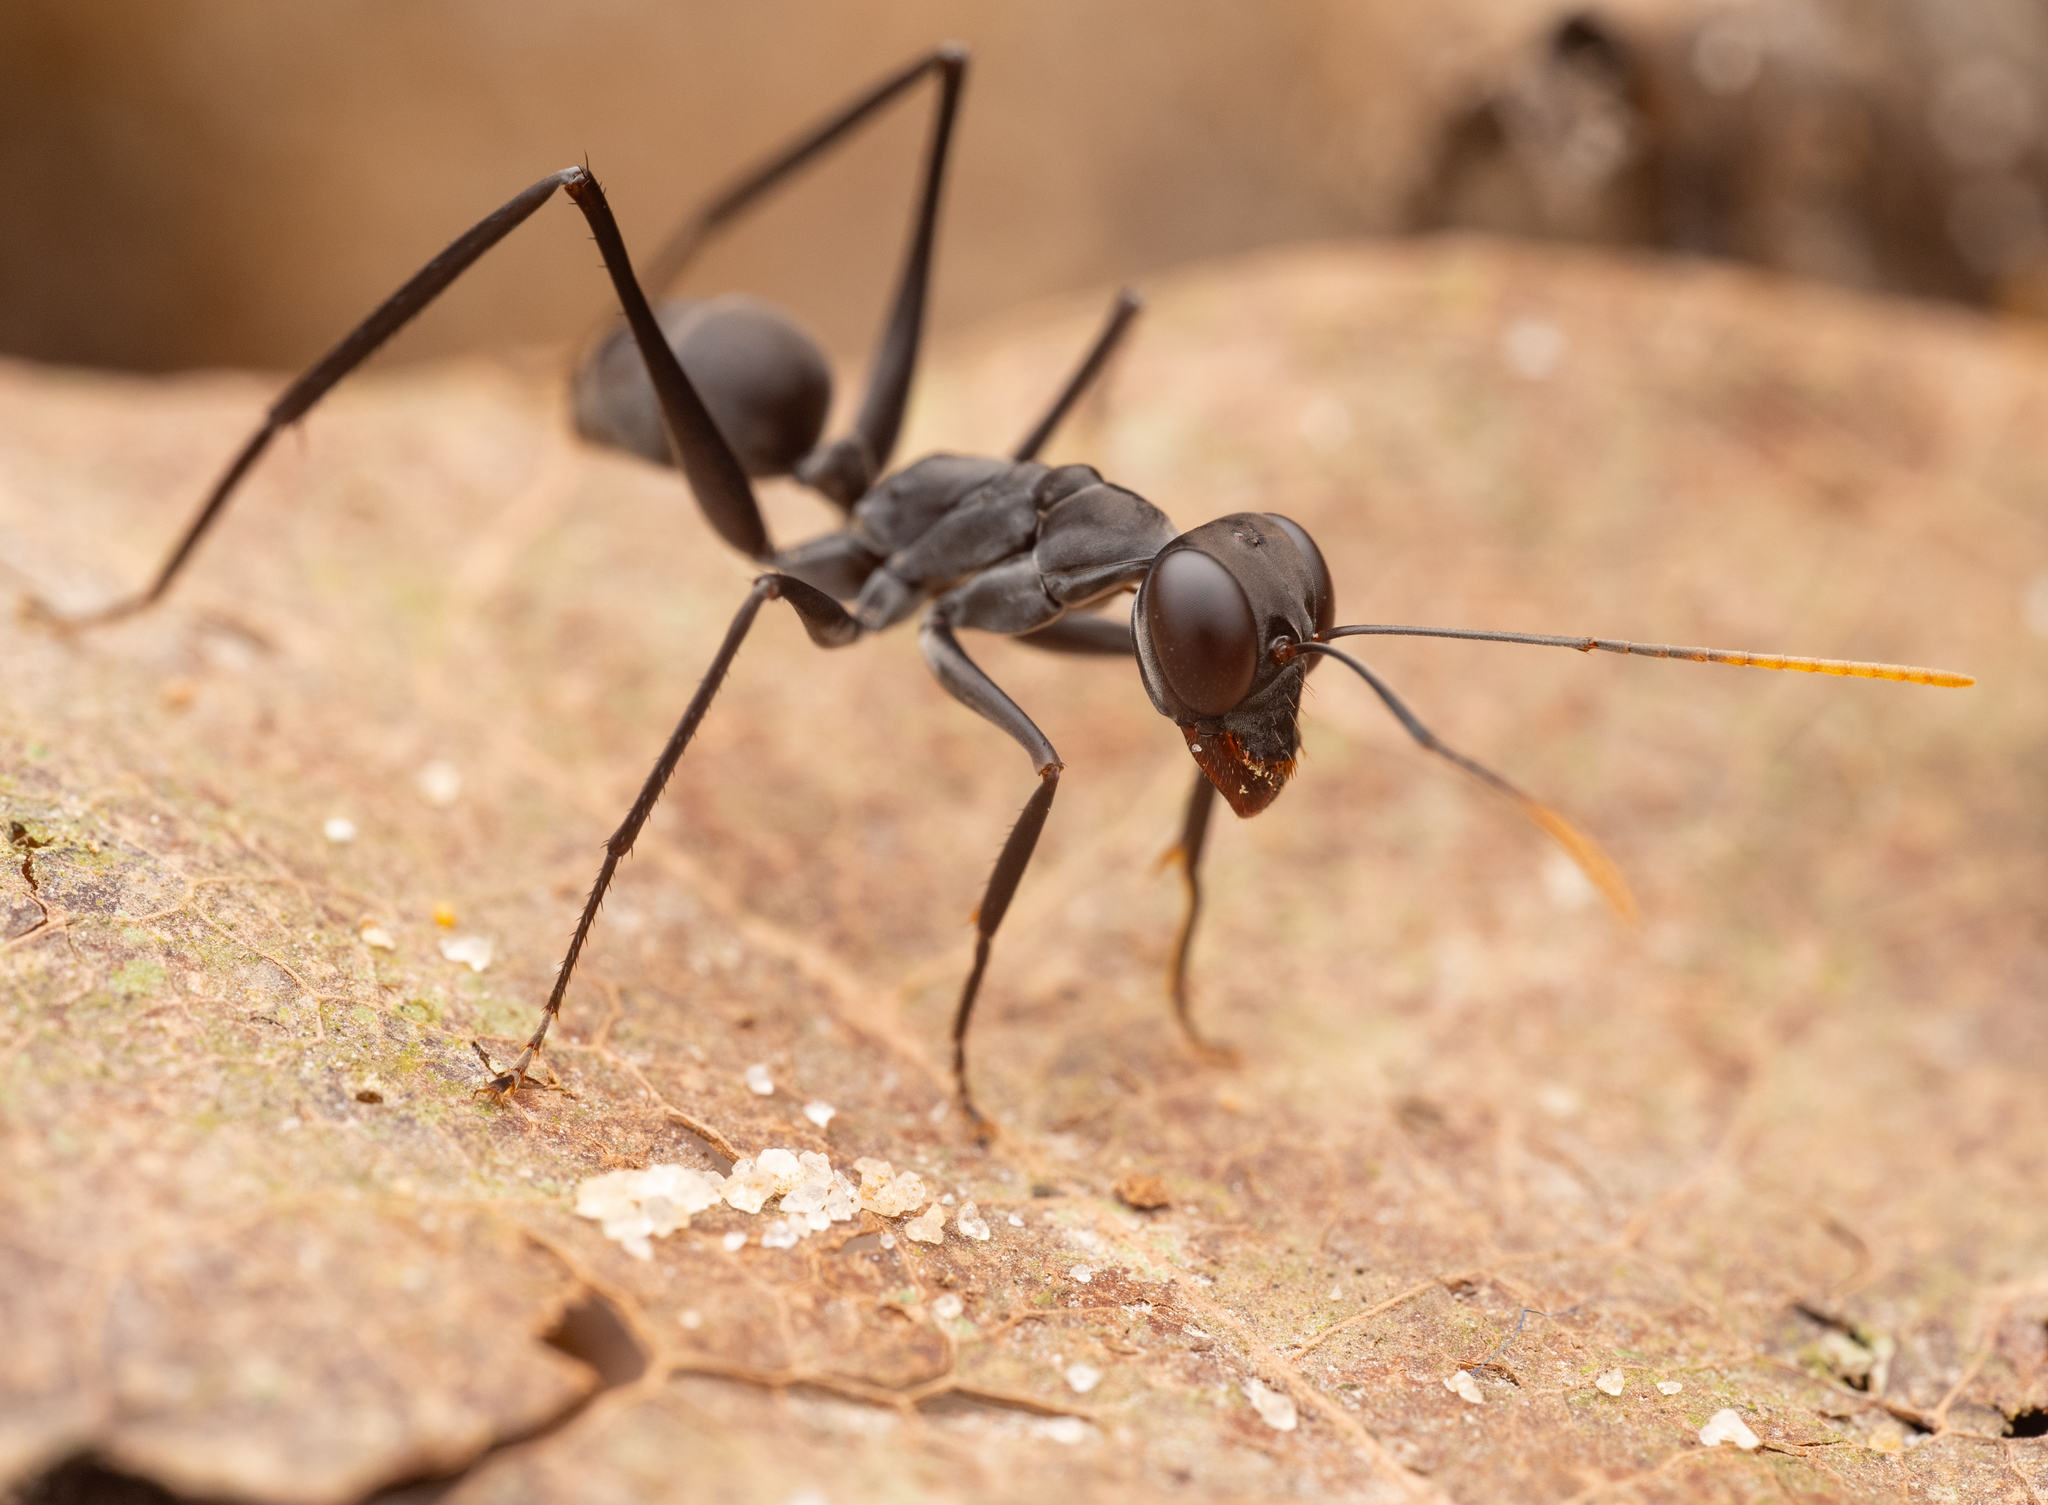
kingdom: Animalia
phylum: Arthropoda
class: Insecta
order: Hymenoptera
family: Formicidae
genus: Gigantiops
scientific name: Gigantiops destructor
